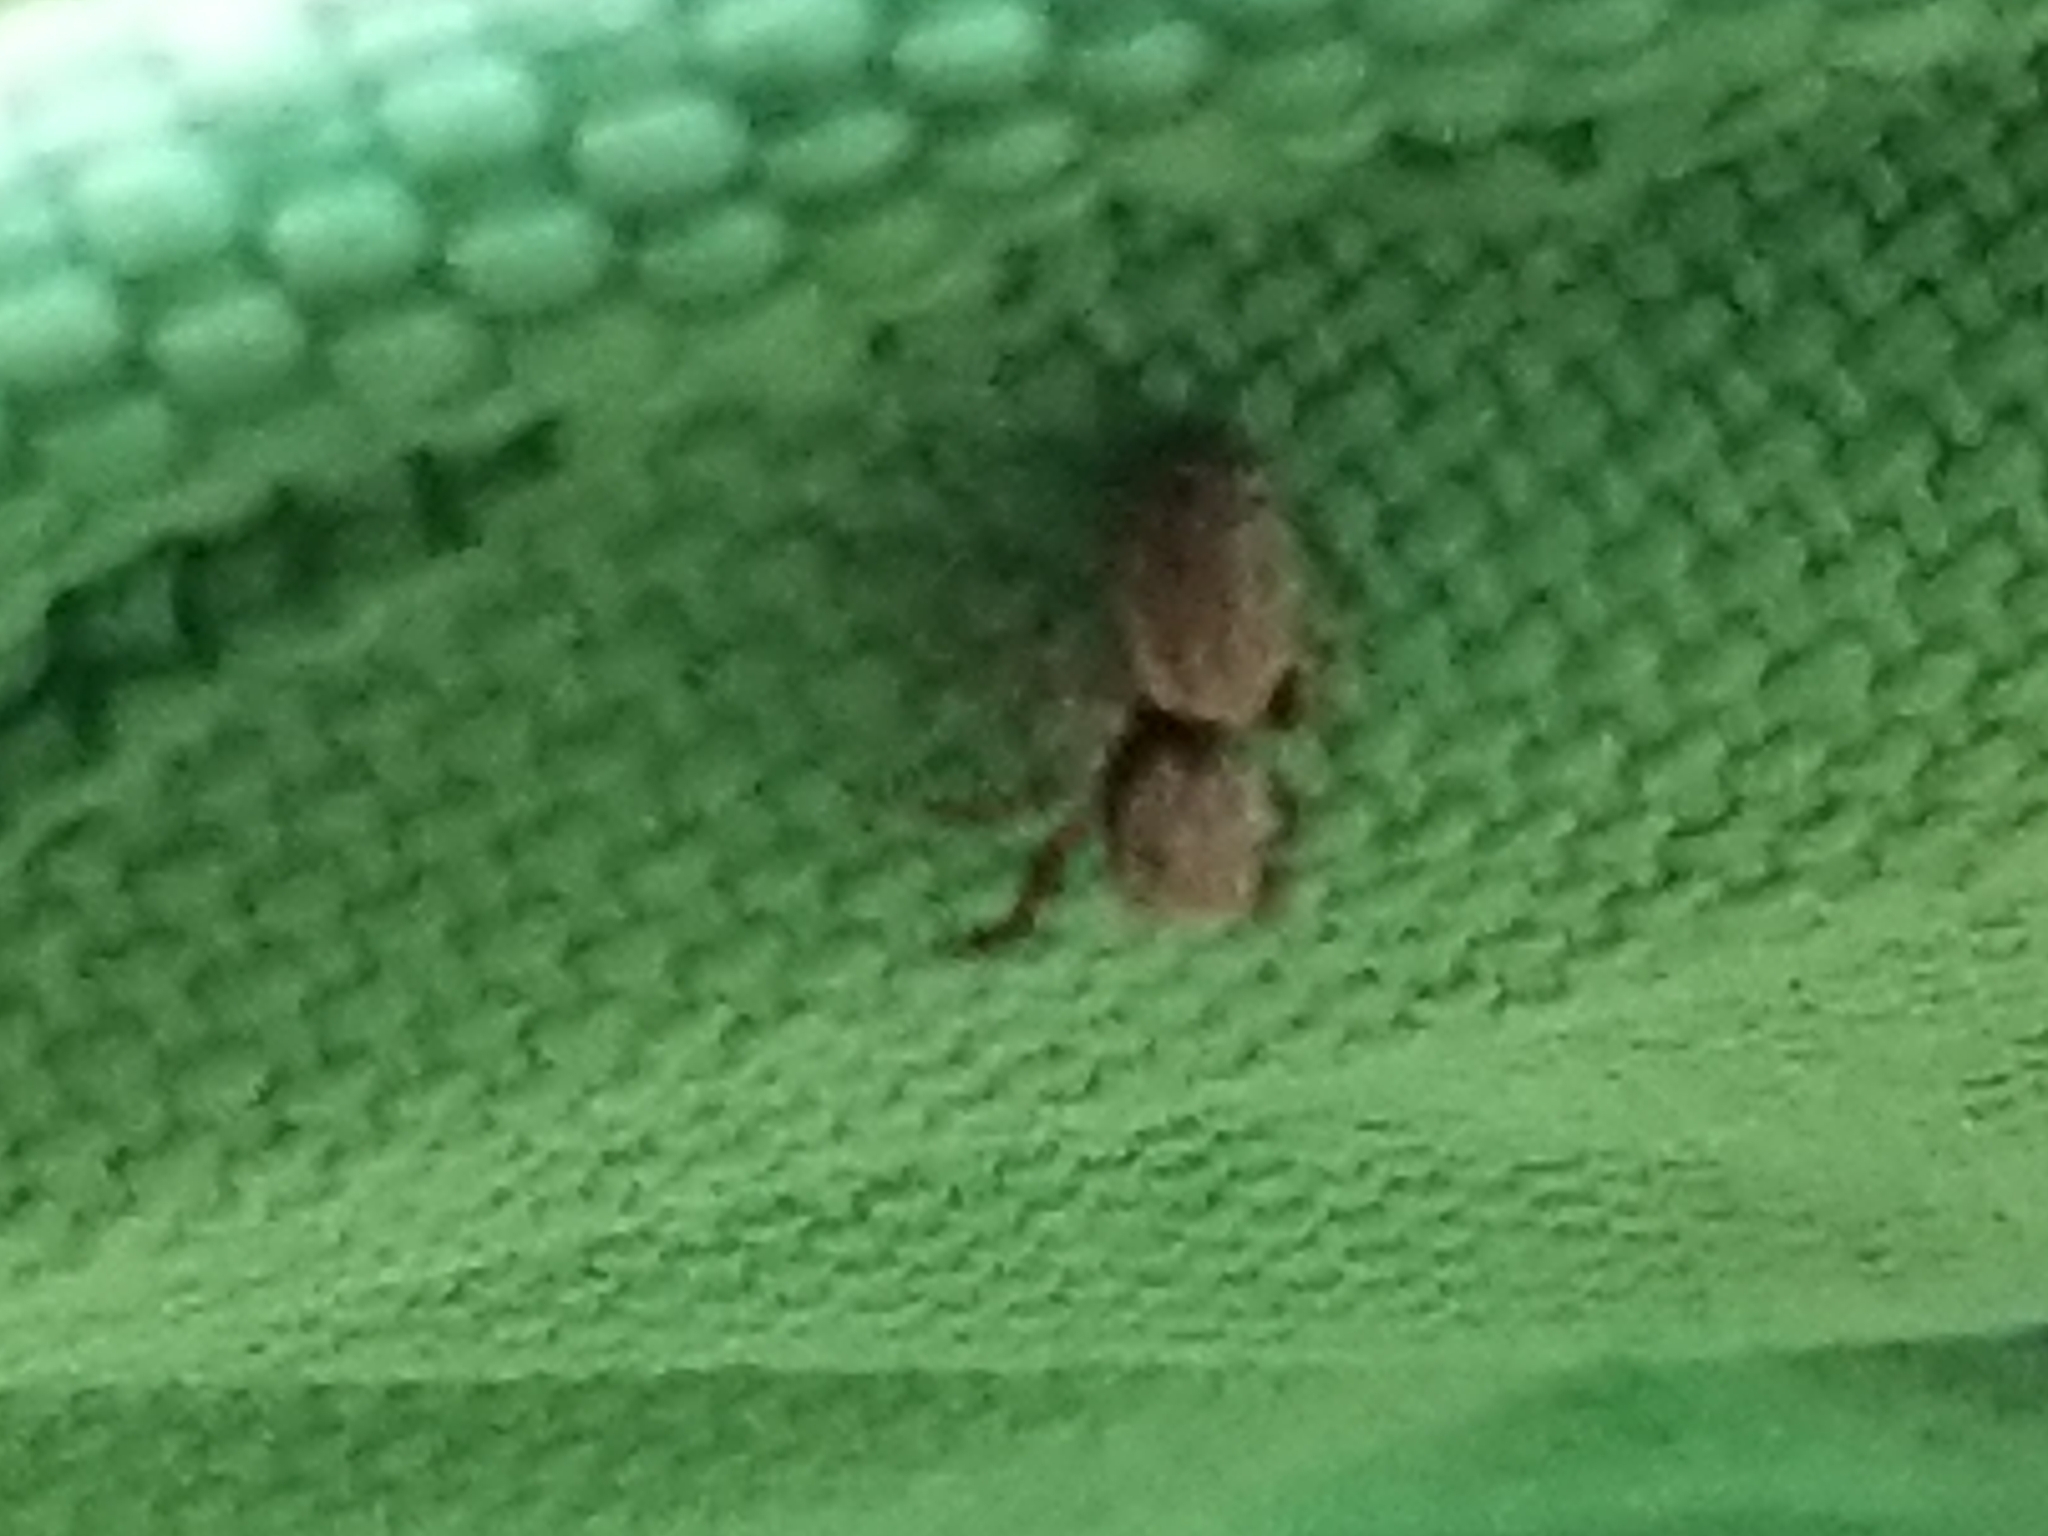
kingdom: Animalia
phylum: Arthropoda
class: Arachnida
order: Araneae
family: Salticidae
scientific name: Salticidae
